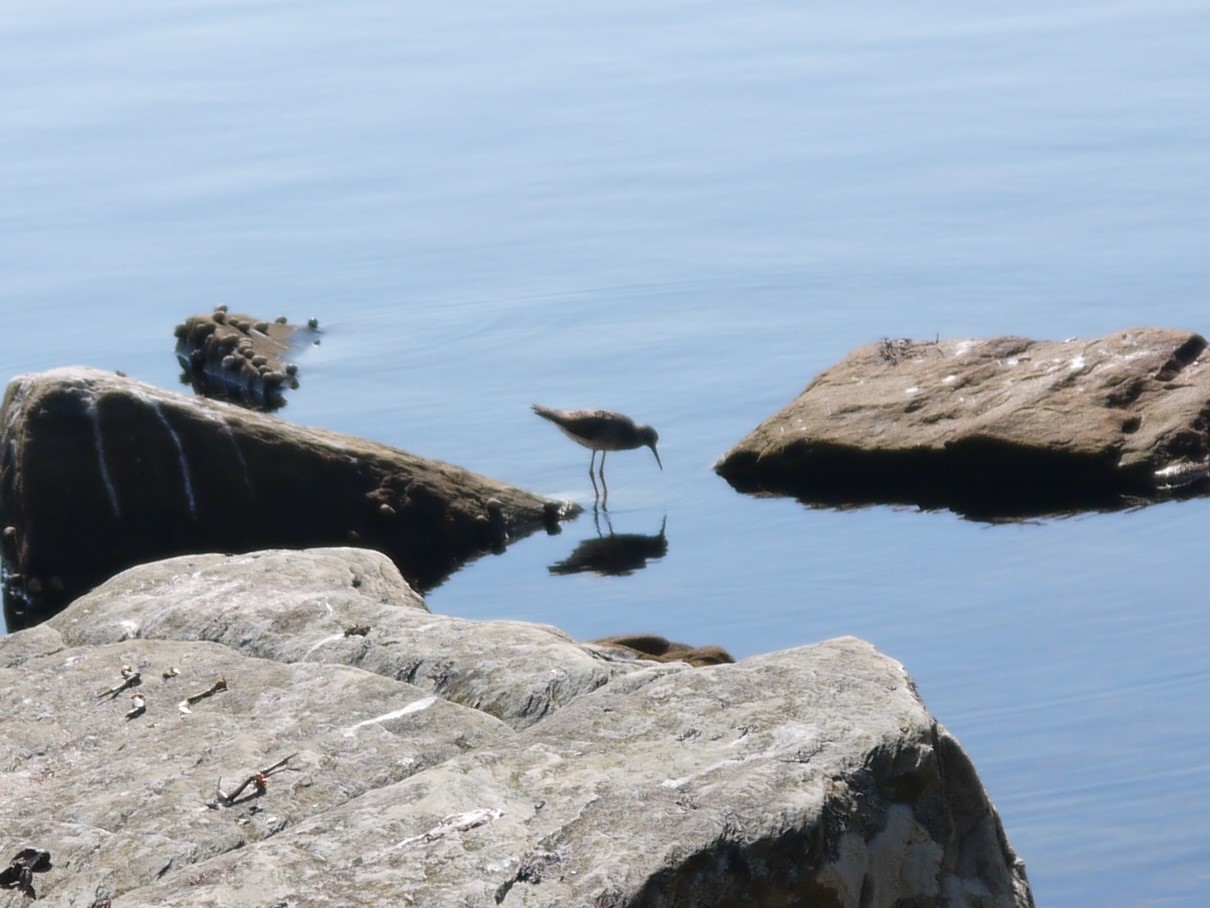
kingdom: Animalia
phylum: Chordata
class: Aves
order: Charadriiformes
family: Scolopacidae
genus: Tringa
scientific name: Tringa flavipes
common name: Lesser yellowlegs
